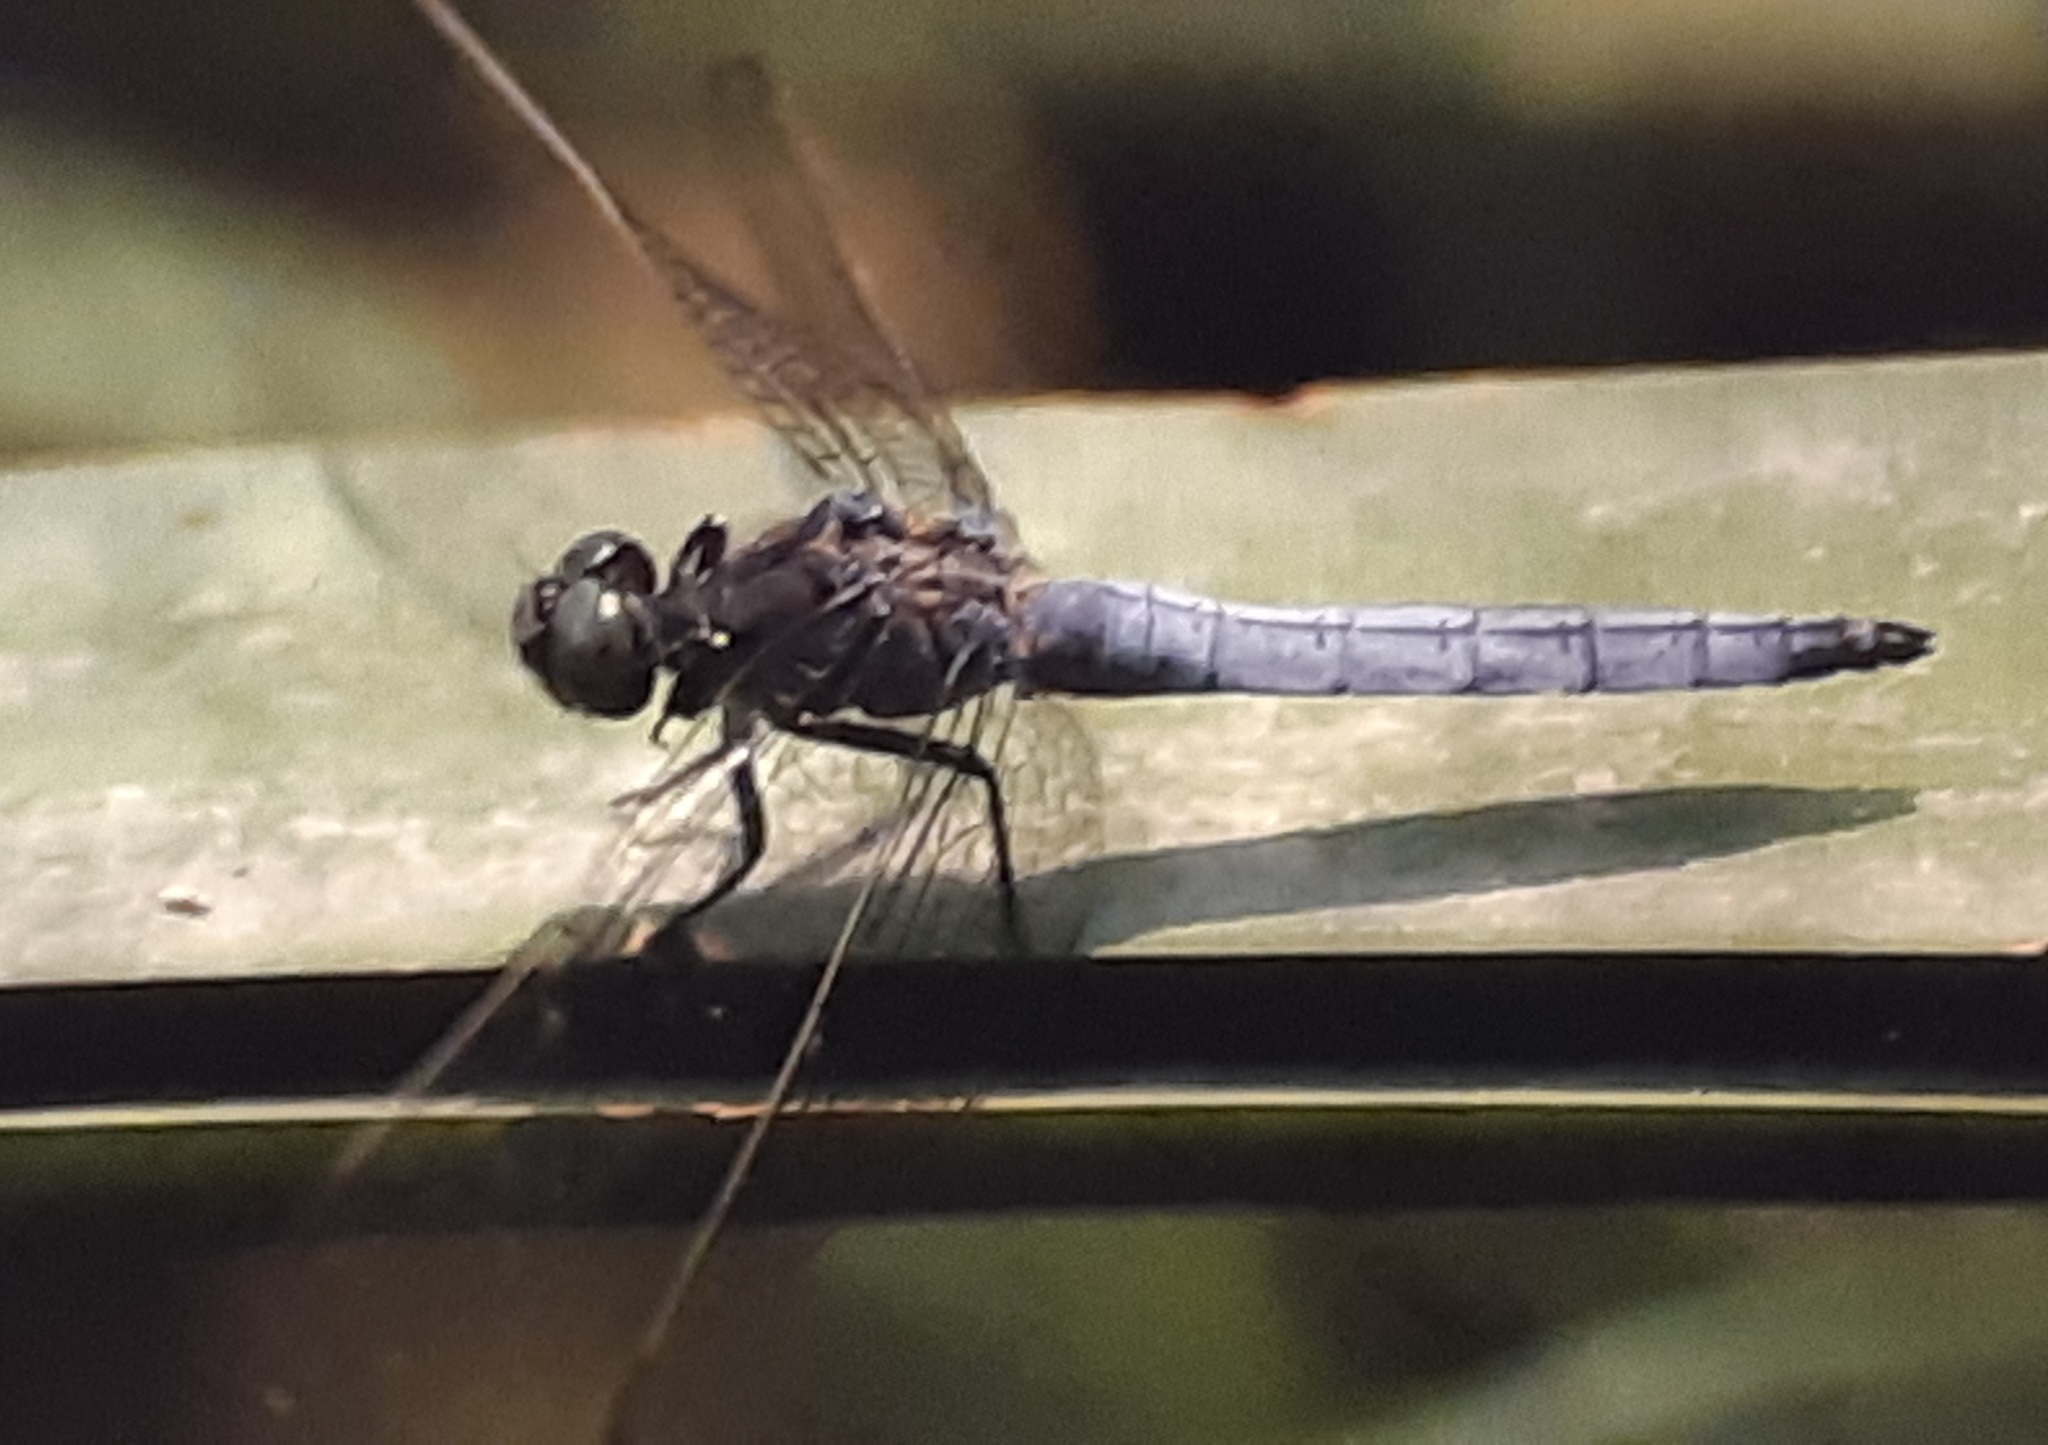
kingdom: Animalia
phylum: Arthropoda
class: Insecta
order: Odonata
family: Libellulidae
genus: Orthetrum
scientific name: Orthetrum coerulescens
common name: Keeled skimmer
